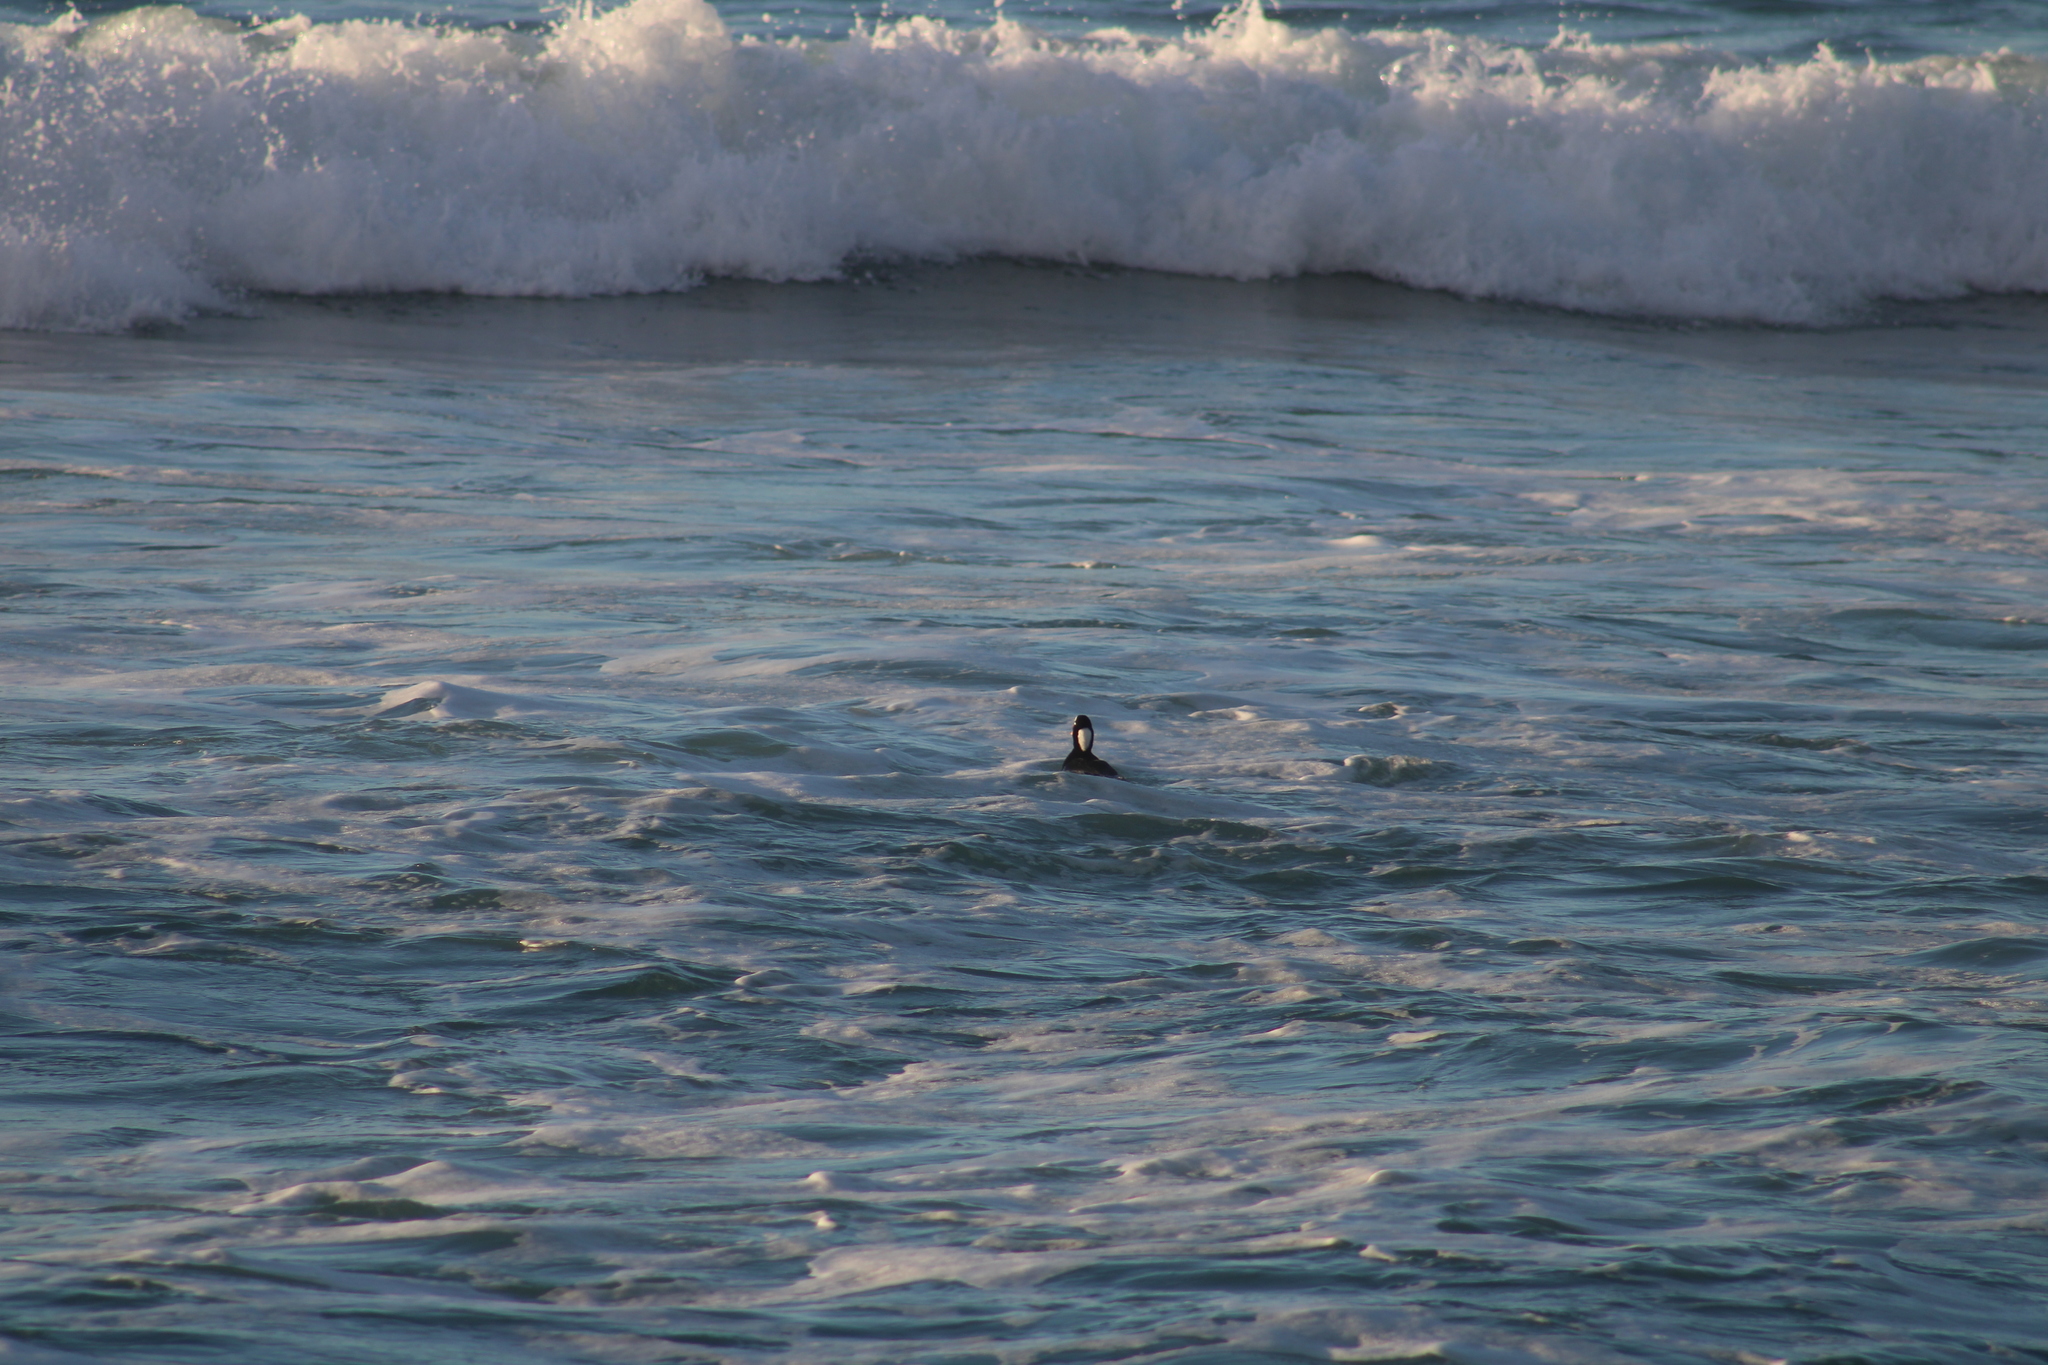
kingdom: Animalia
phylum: Chordata
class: Aves
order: Anseriformes
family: Anatidae
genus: Melanitta
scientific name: Melanitta perspicillata
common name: Surf scoter
